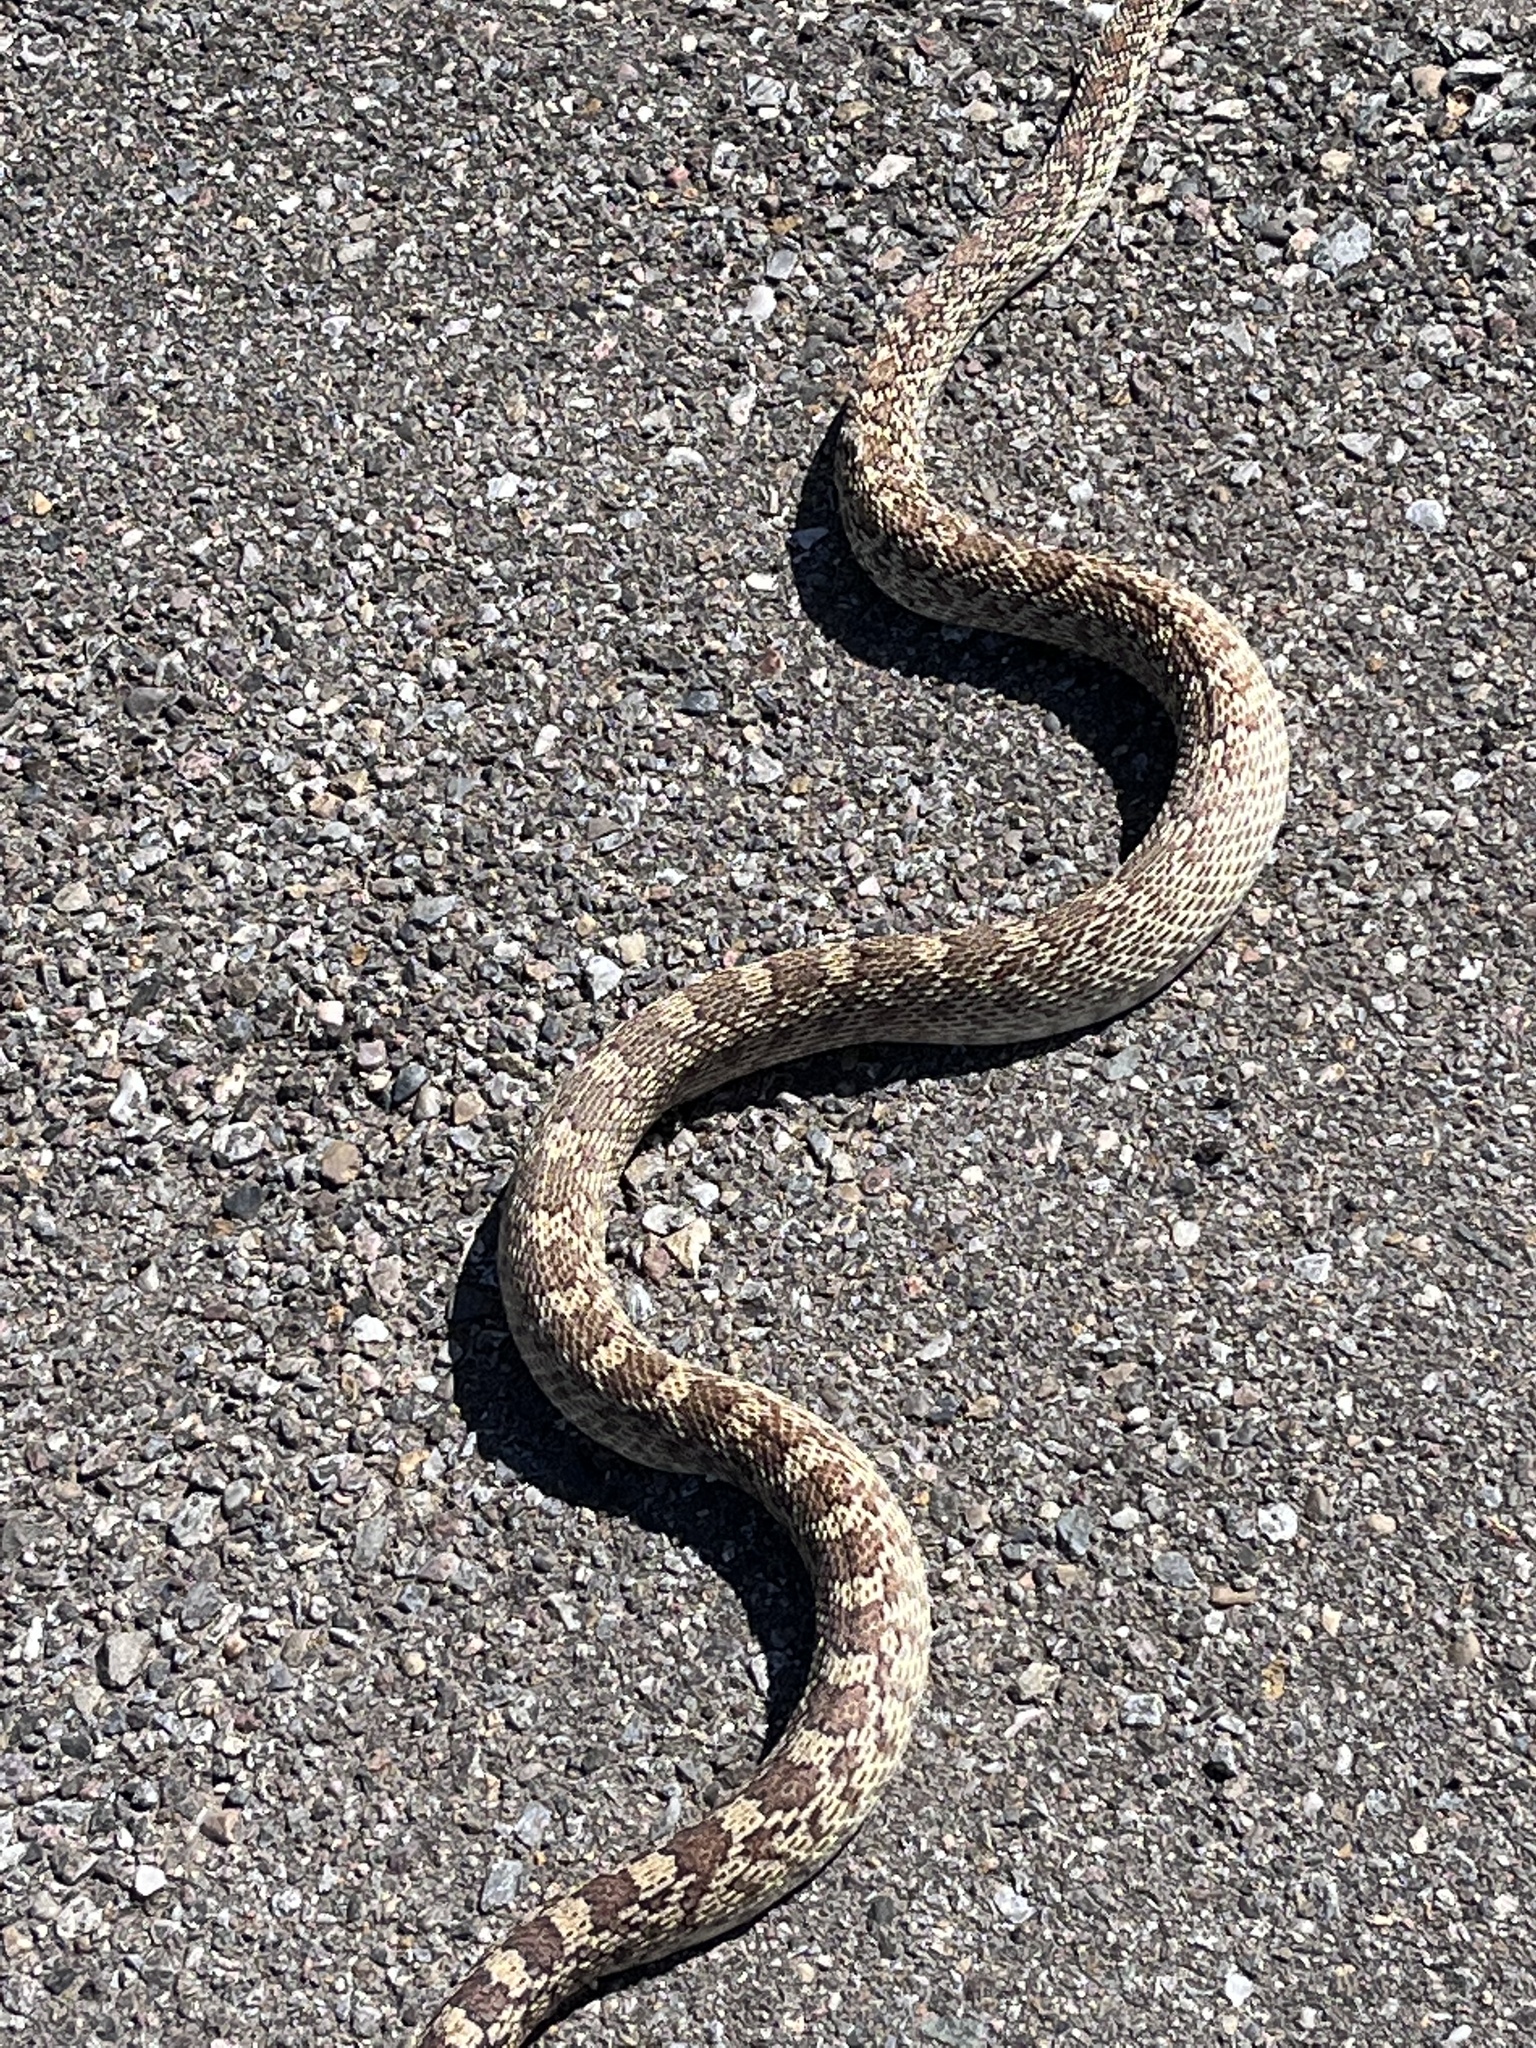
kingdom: Animalia
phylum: Chordata
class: Squamata
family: Colubridae
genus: Pituophis
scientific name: Pituophis catenifer
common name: Gopher snake
